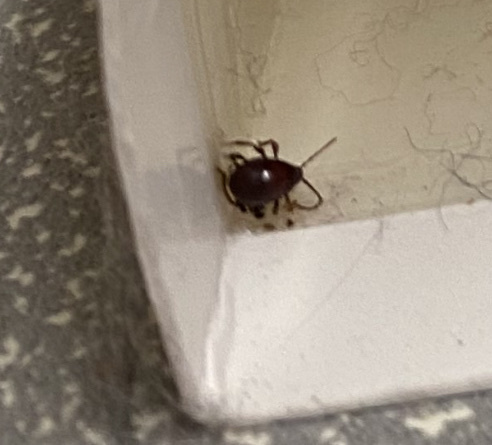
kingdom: Animalia
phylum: Arthropoda
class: Insecta
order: Coleoptera
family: Ptinidae
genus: Gibbium
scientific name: Gibbium aequinoctiale
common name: Smooth spider beetle
